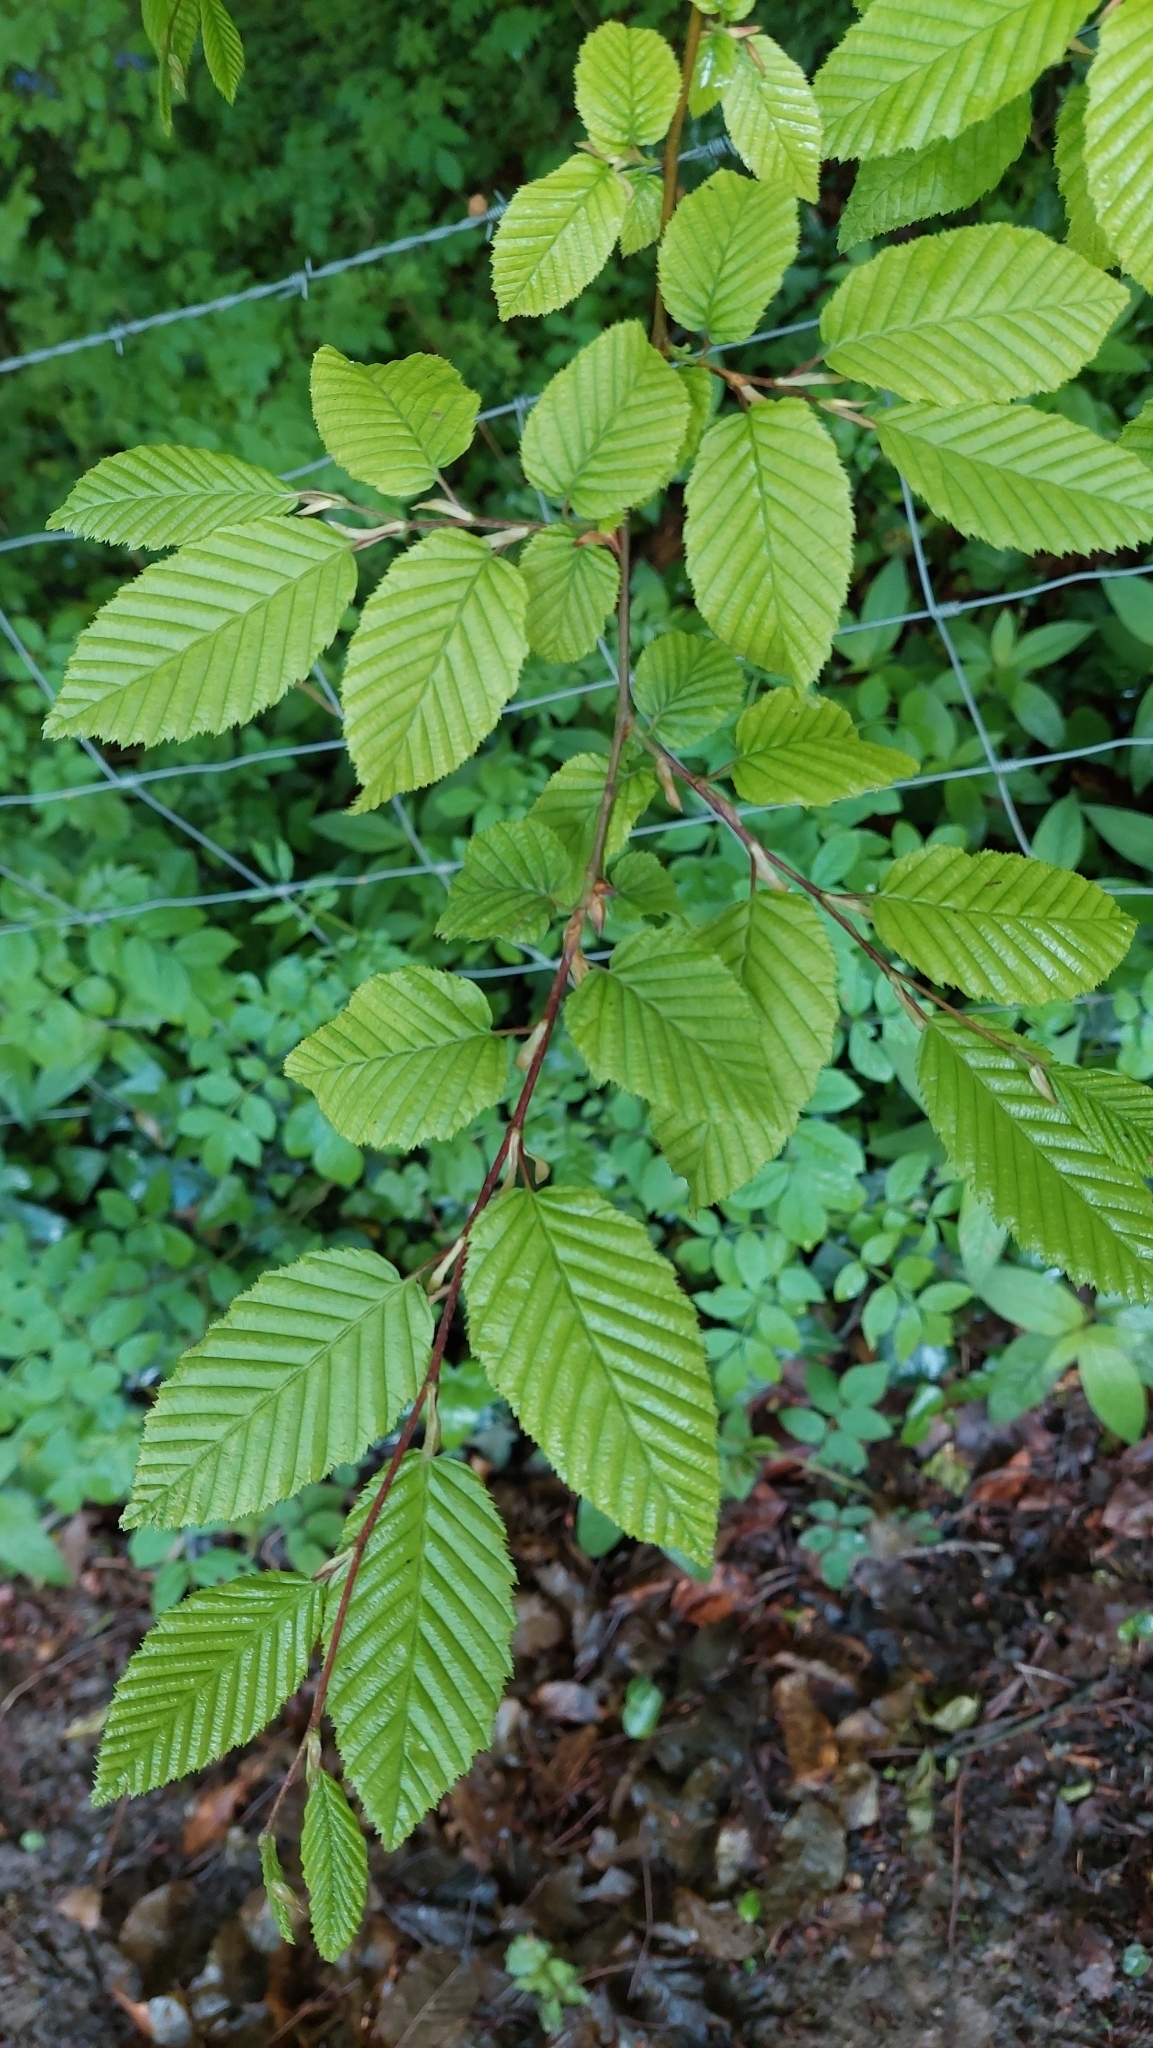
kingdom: Plantae
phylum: Tracheophyta
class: Magnoliopsida
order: Fagales
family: Betulaceae
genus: Carpinus
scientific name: Carpinus betulus
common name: Hornbeam
